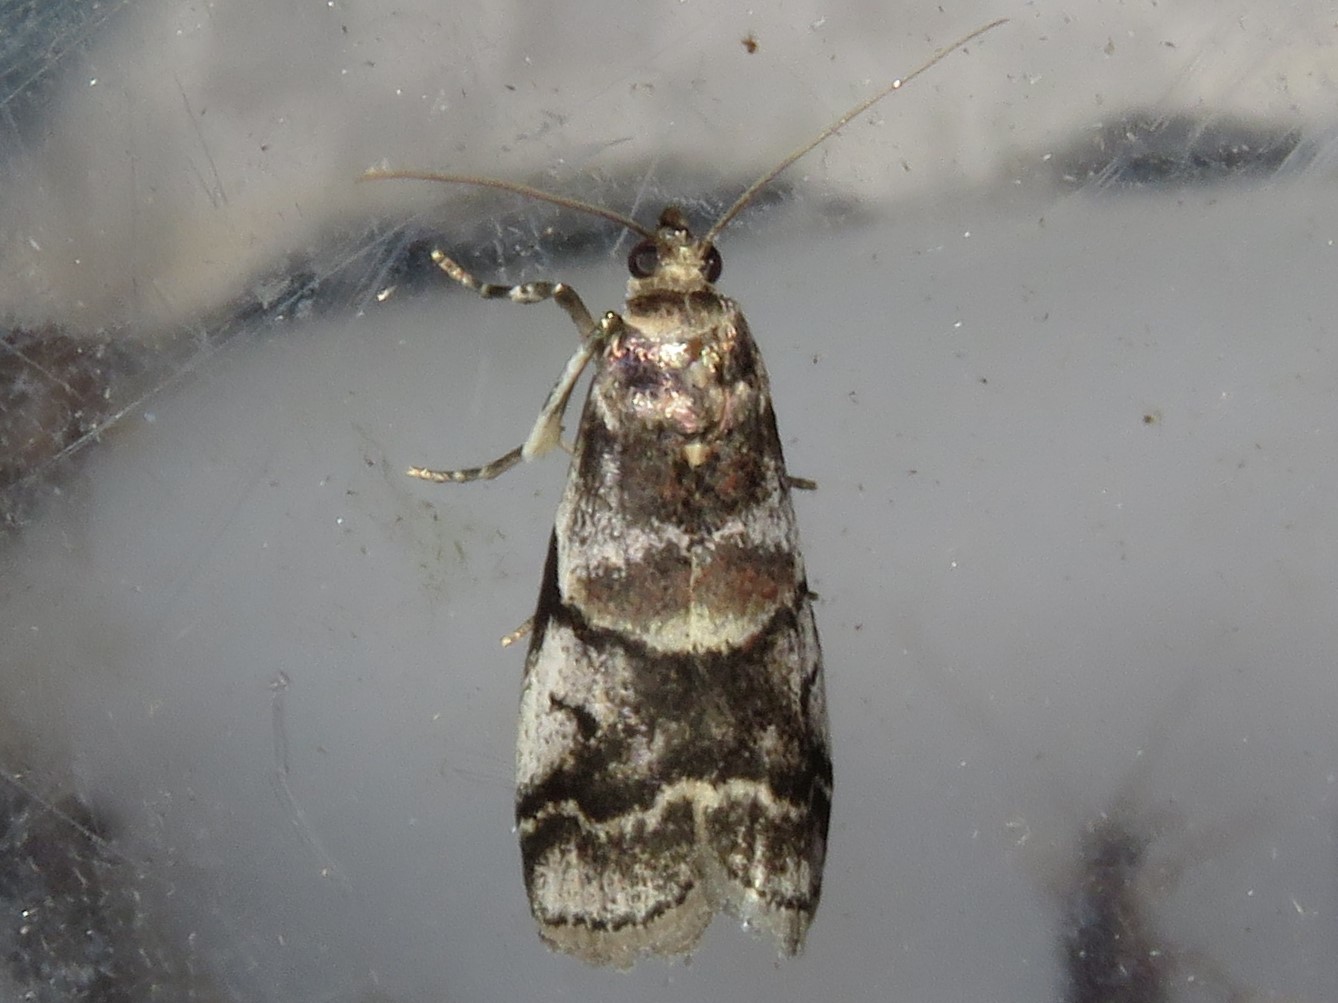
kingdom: Animalia
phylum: Arthropoda
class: Insecta
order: Lepidoptera
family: Pyralidae
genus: Acrobasis
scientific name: Acrobasis tricolorella
